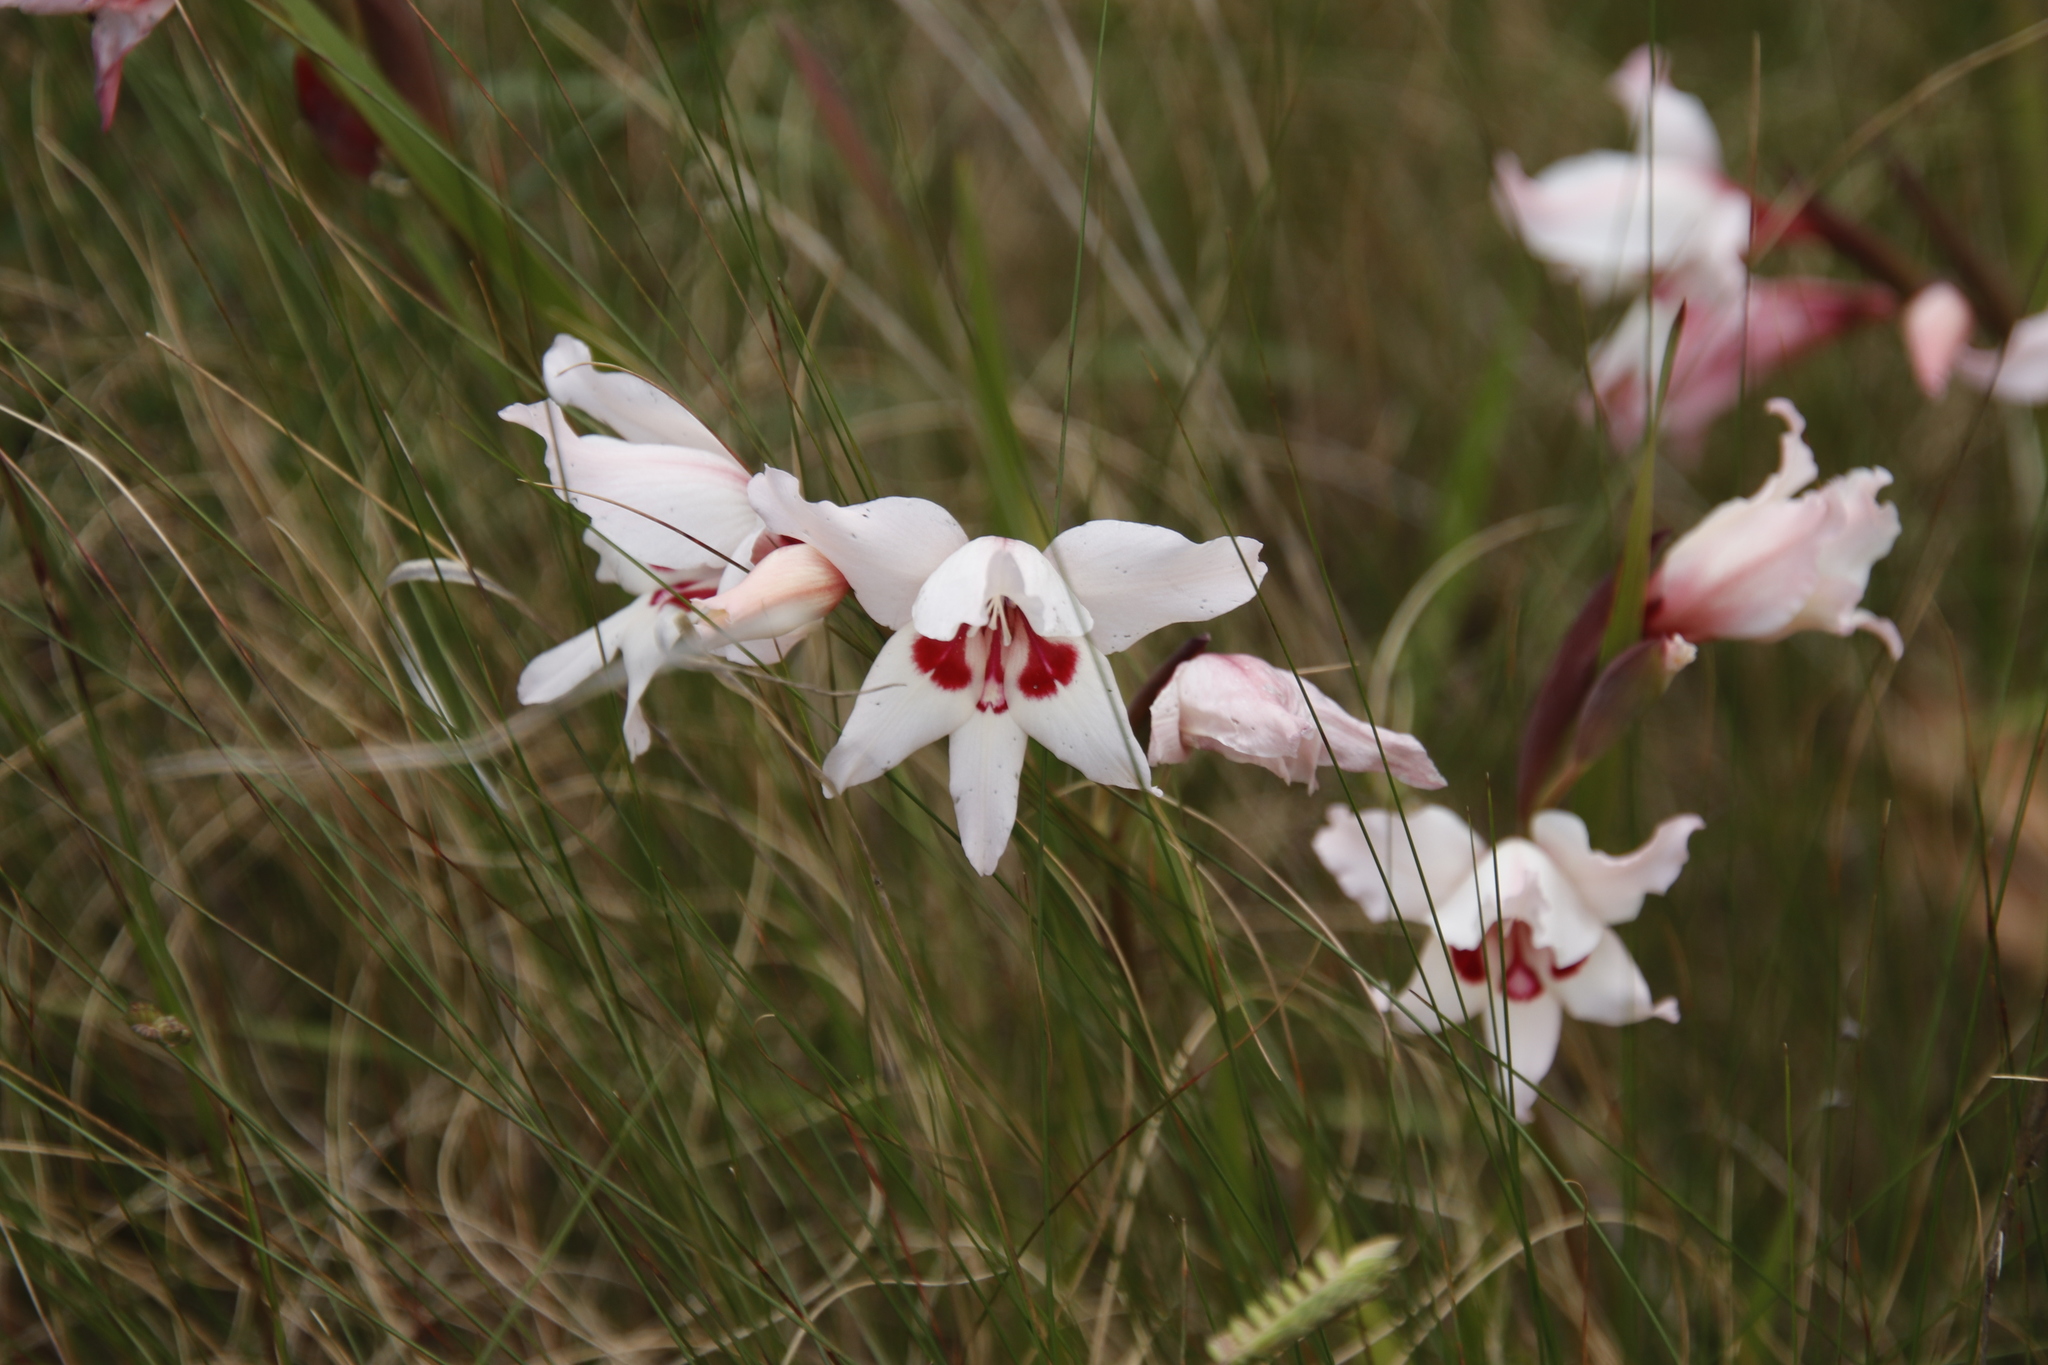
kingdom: Plantae
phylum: Tracheophyta
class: Liliopsida
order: Asparagales
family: Iridaceae
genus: Gladiolus
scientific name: Gladiolus carneus
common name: Painted-lady
